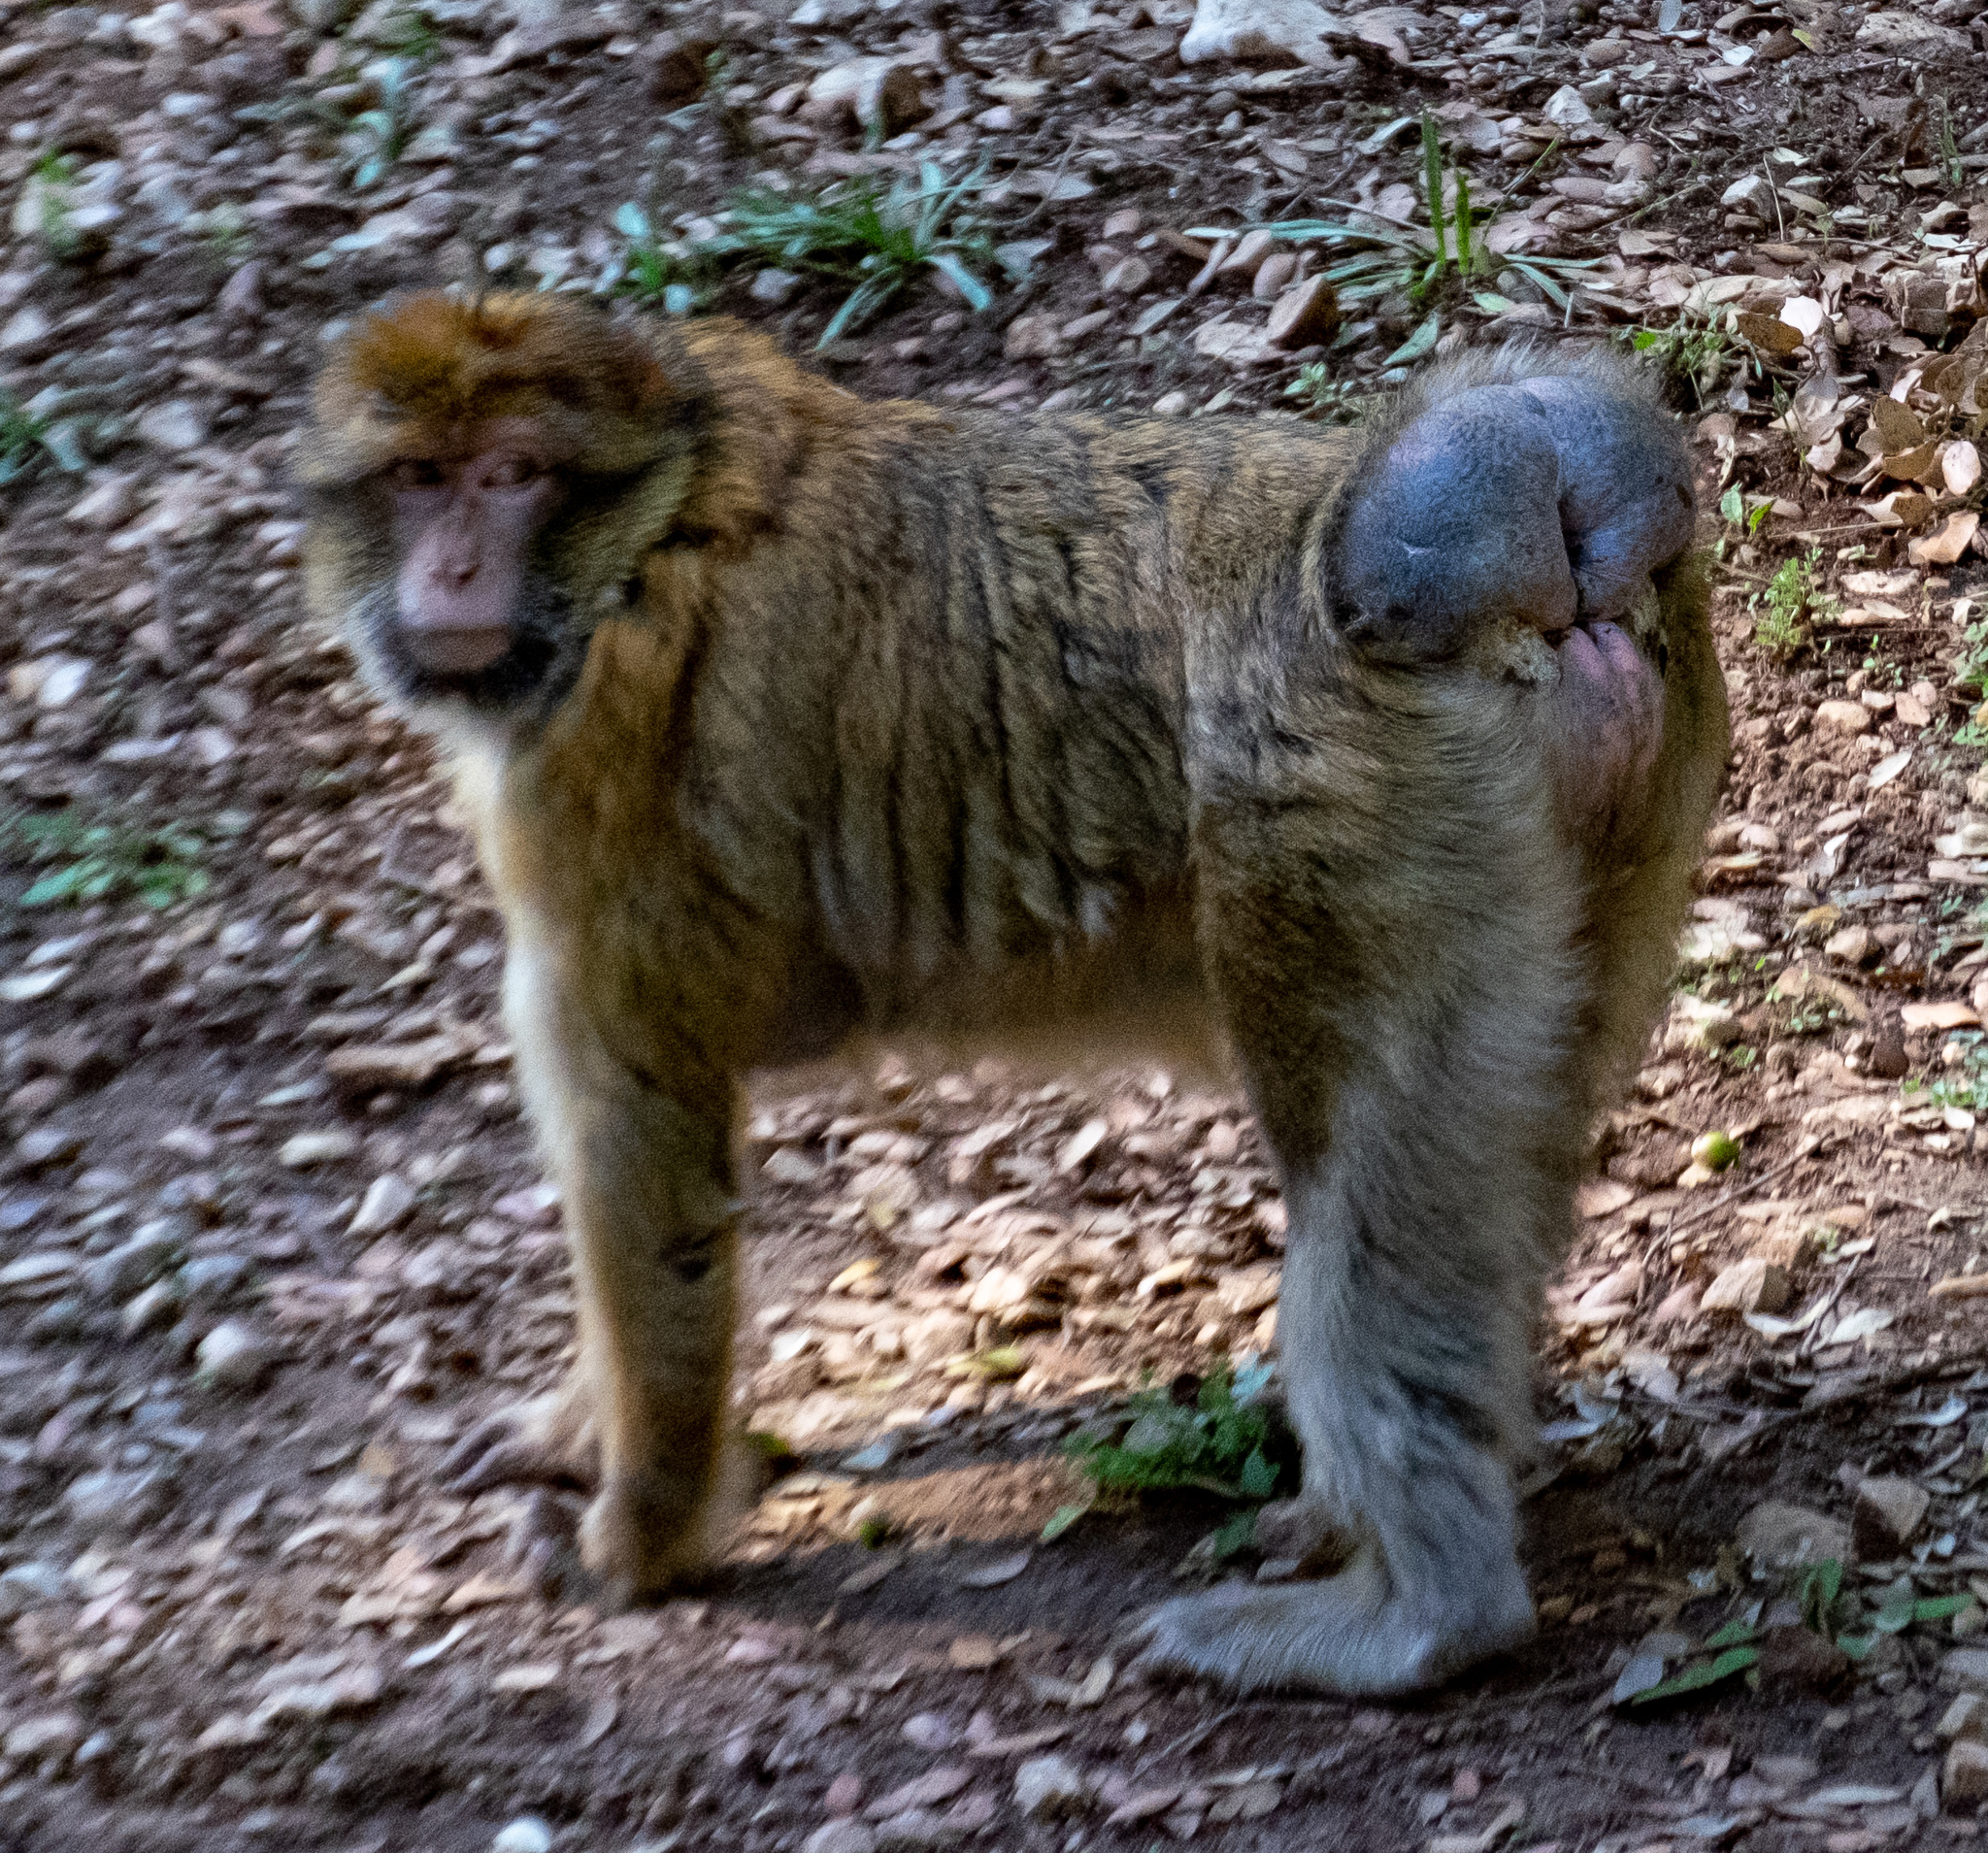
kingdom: Animalia
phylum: Chordata
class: Mammalia
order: Primates
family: Cercopithecidae
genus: Macaca
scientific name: Macaca sylvanus
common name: Barbary macaque
